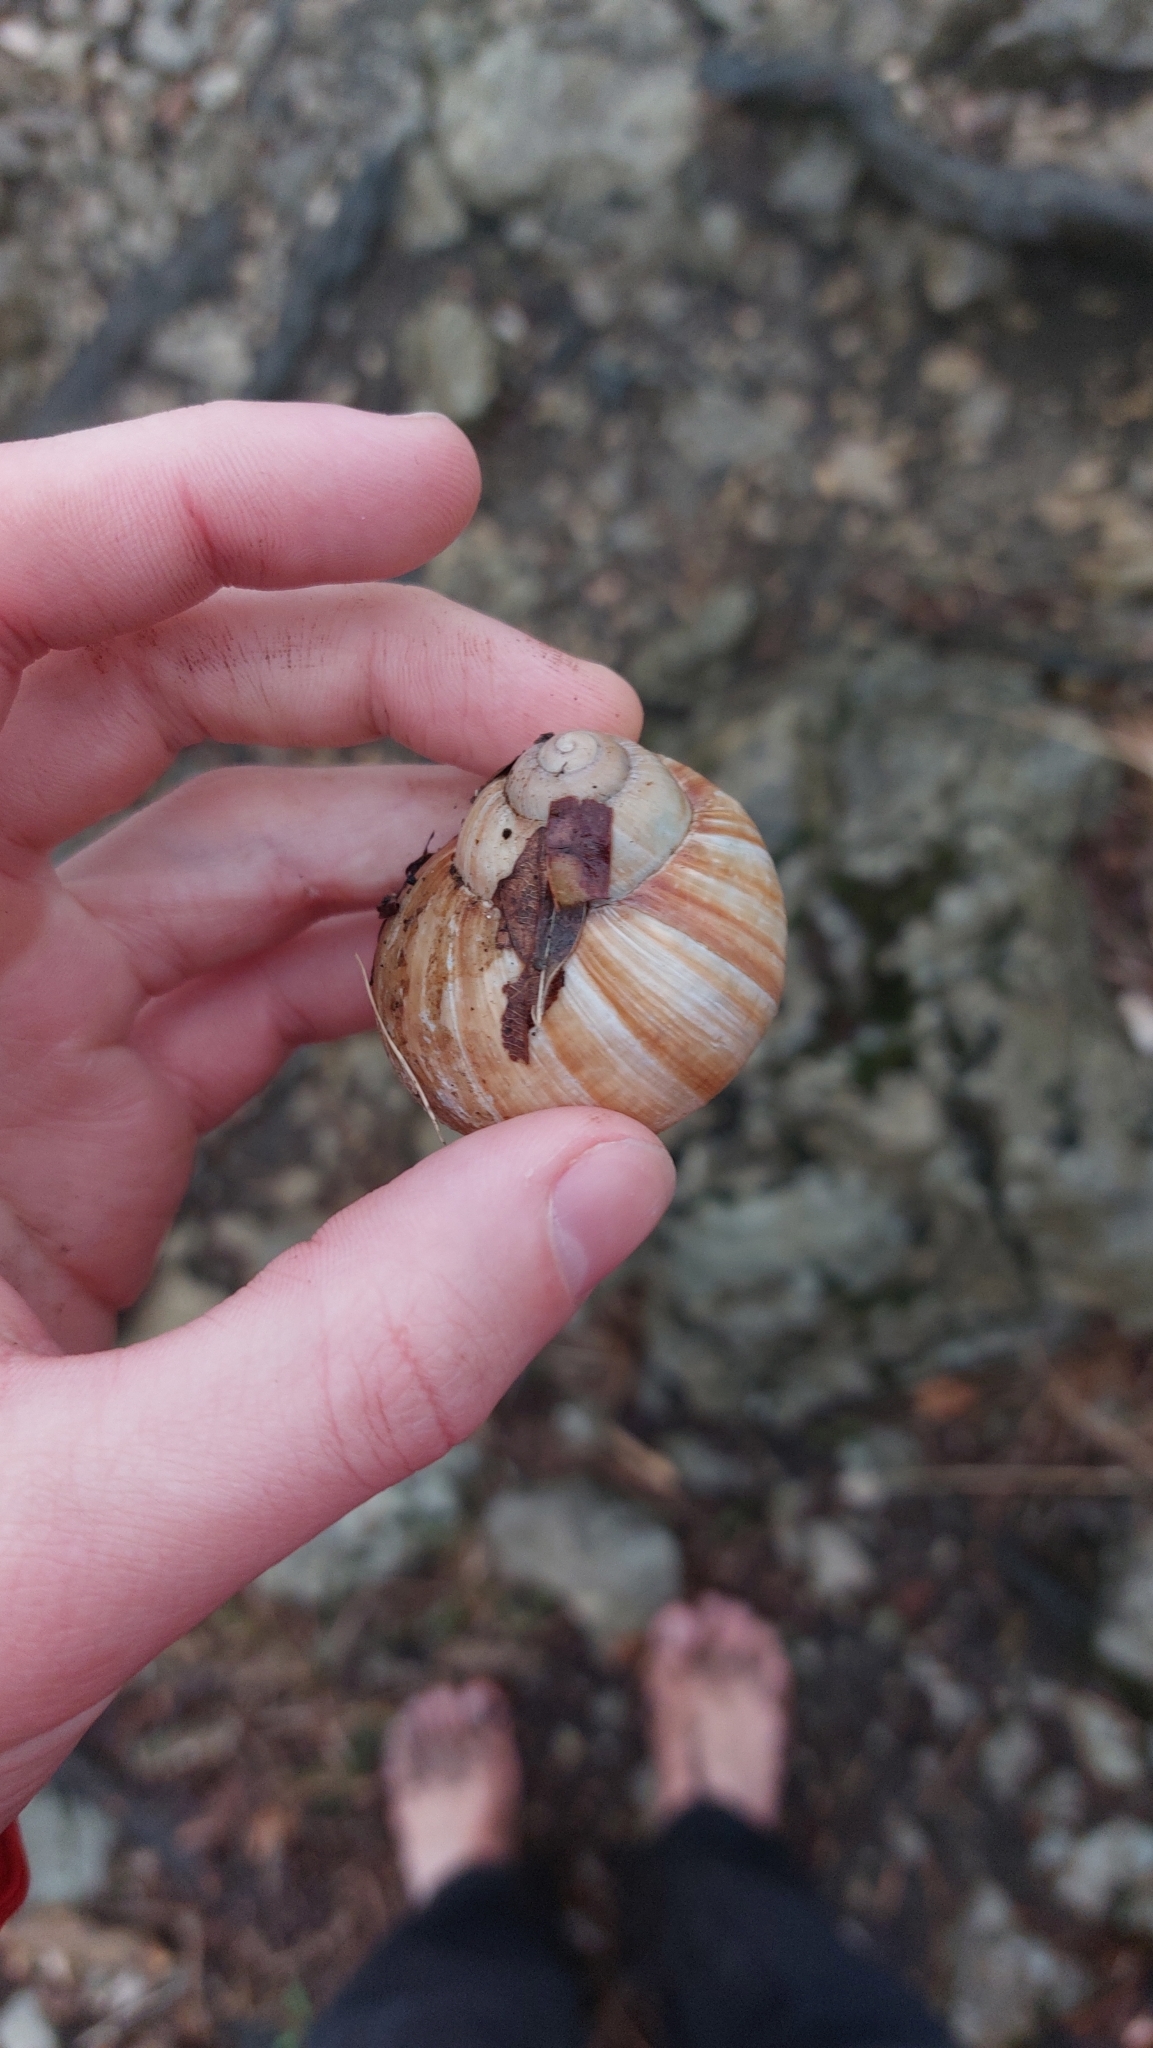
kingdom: Animalia
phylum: Mollusca
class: Gastropoda
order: Stylommatophora
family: Helicidae
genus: Helix
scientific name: Helix lucorum
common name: Turkish snail
